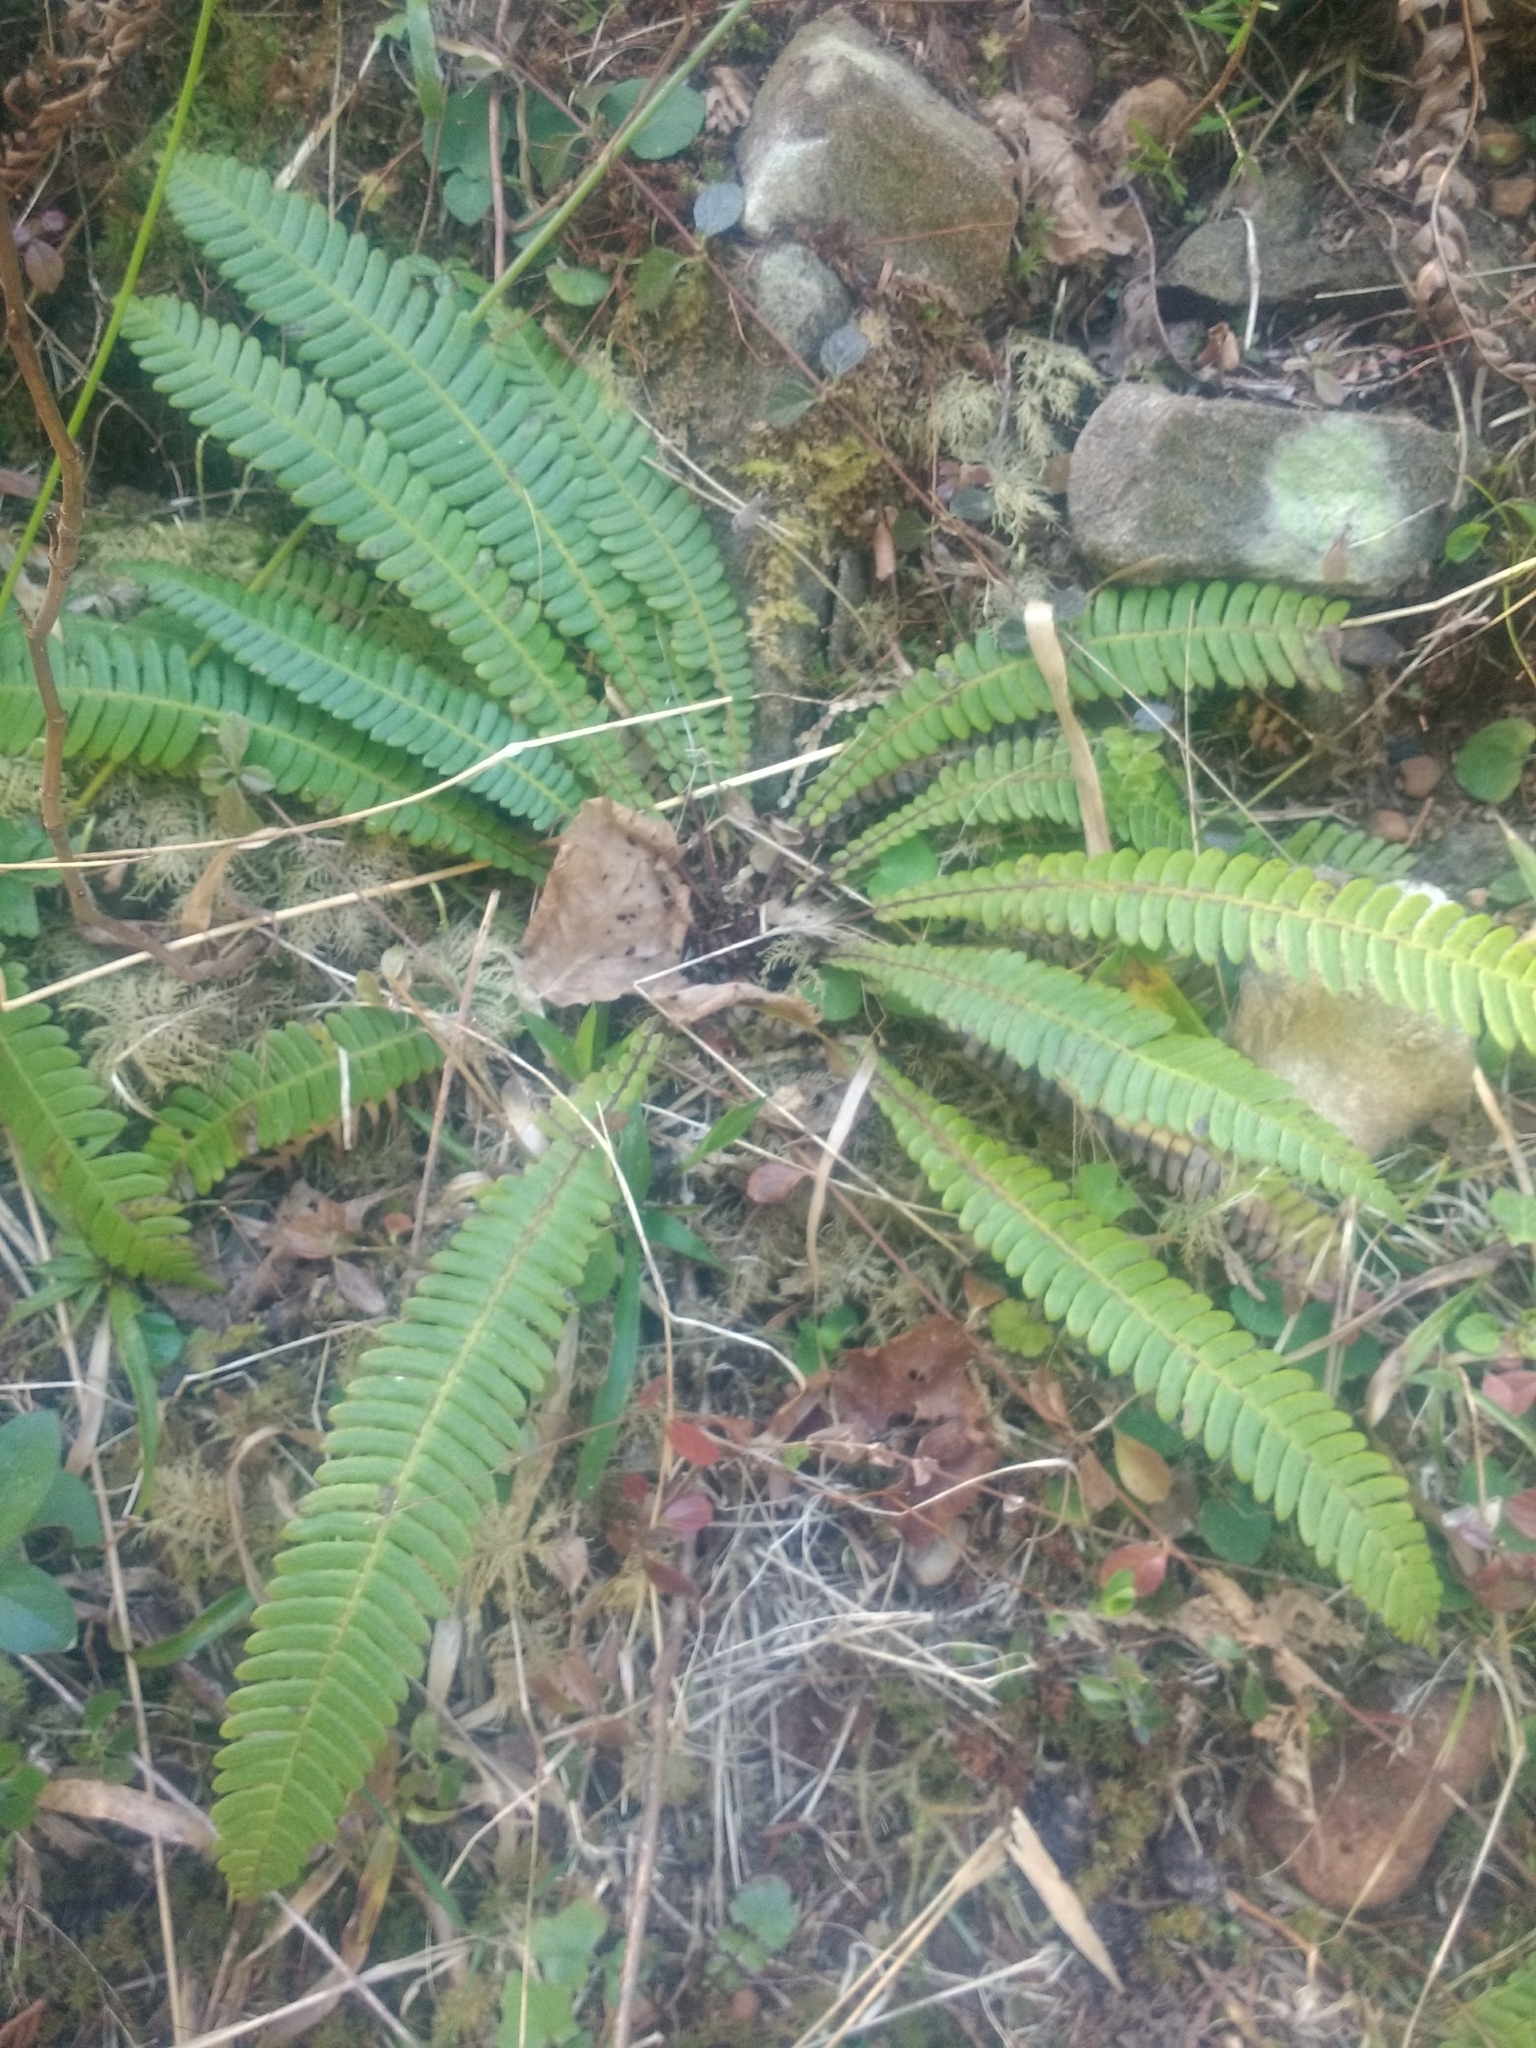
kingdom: Plantae
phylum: Tracheophyta
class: Polypodiopsida
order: Polypodiales
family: Blechnaceae
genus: Struthiopteris
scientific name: Struthiopteris spicant
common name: Deer fern
